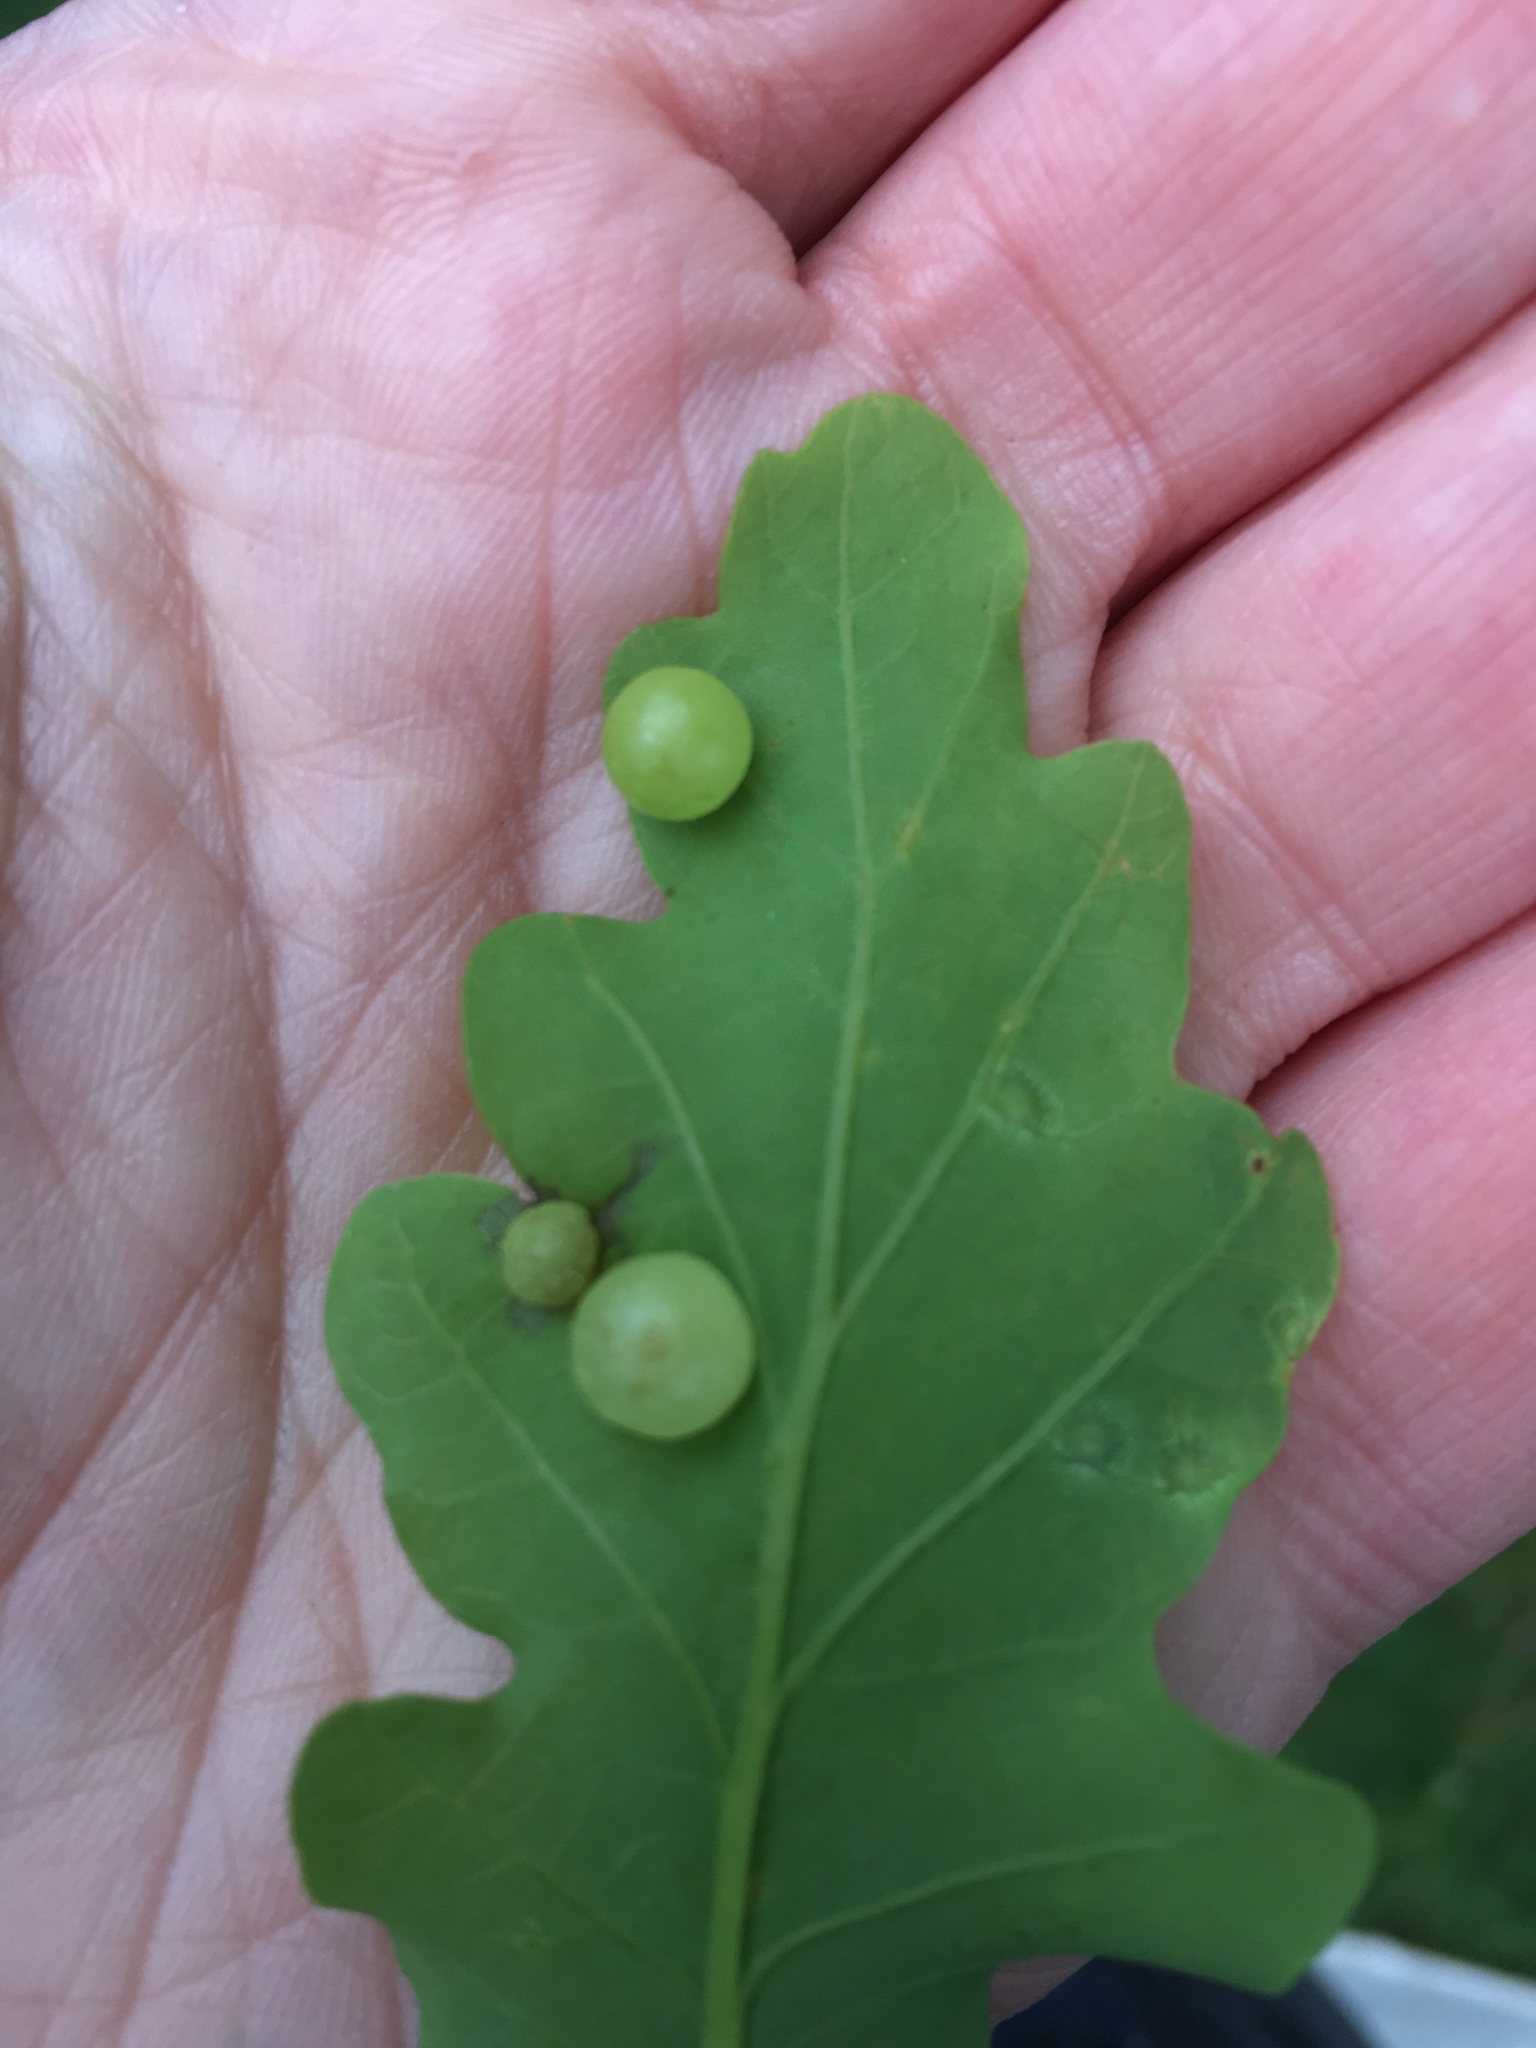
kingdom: Animalia
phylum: Arthropoda
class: Insecta
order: Hymenoptera
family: Cynipidae
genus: Neuroterus
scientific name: Neuroterus quercusbaccarum
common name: Common spangle gall
